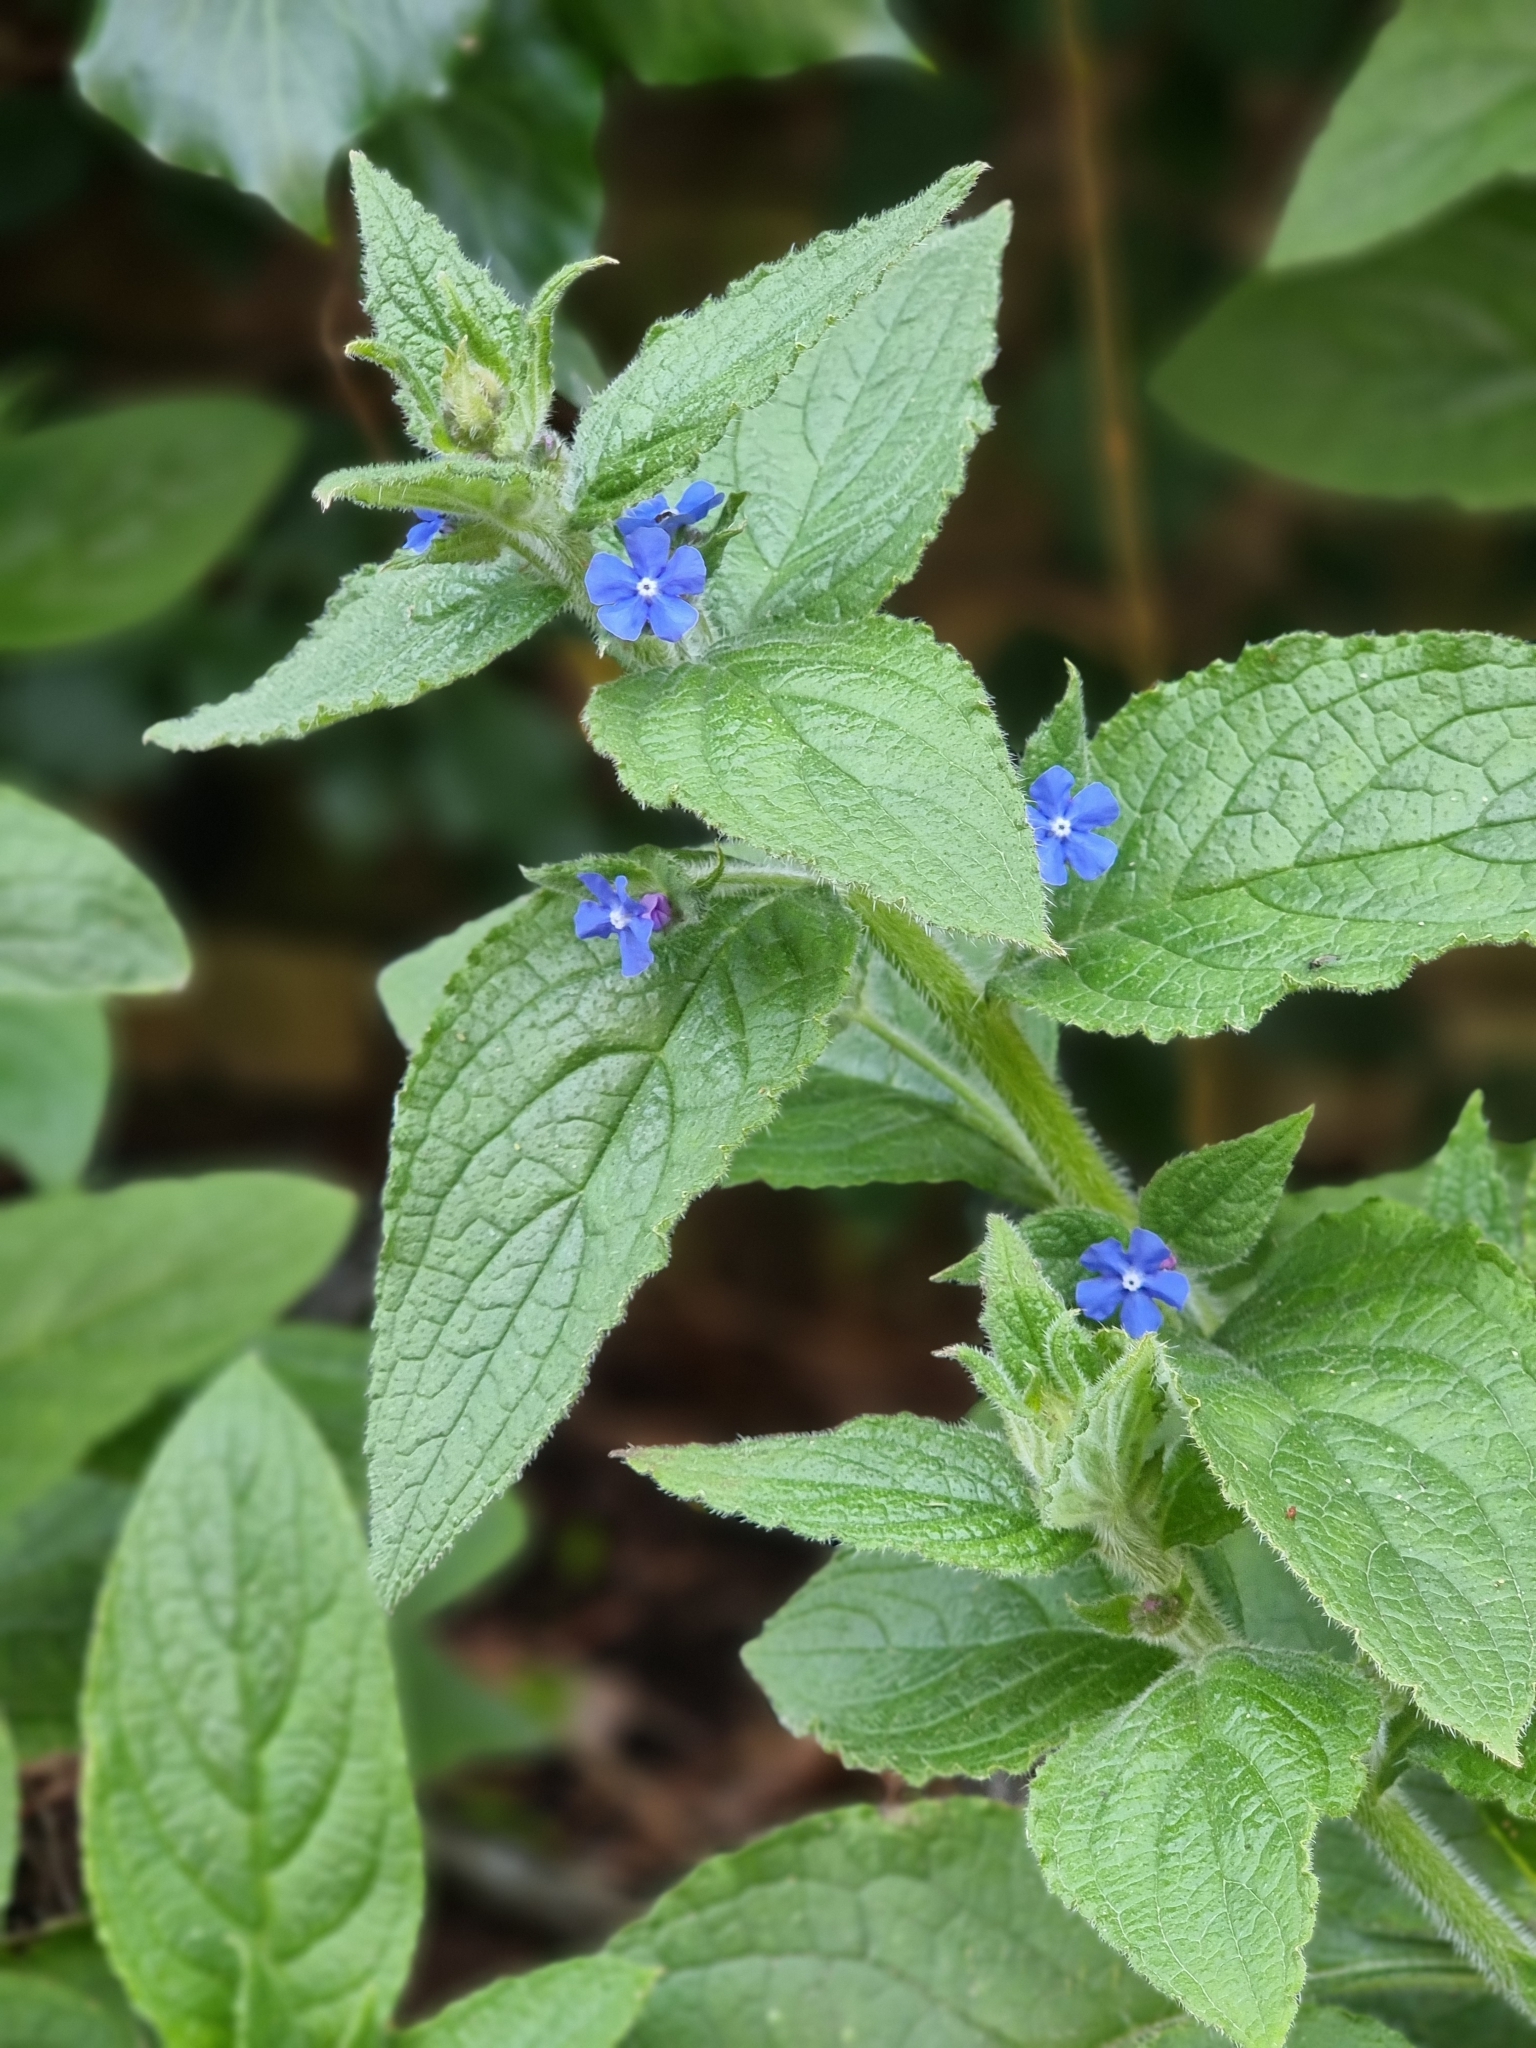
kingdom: Plantae
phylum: Tracheophyta
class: Magnoliopsida
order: Boraginales
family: Boraginaceae
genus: Pentaglottis
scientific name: Pentaglottis sempervirens
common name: Green alkanet
